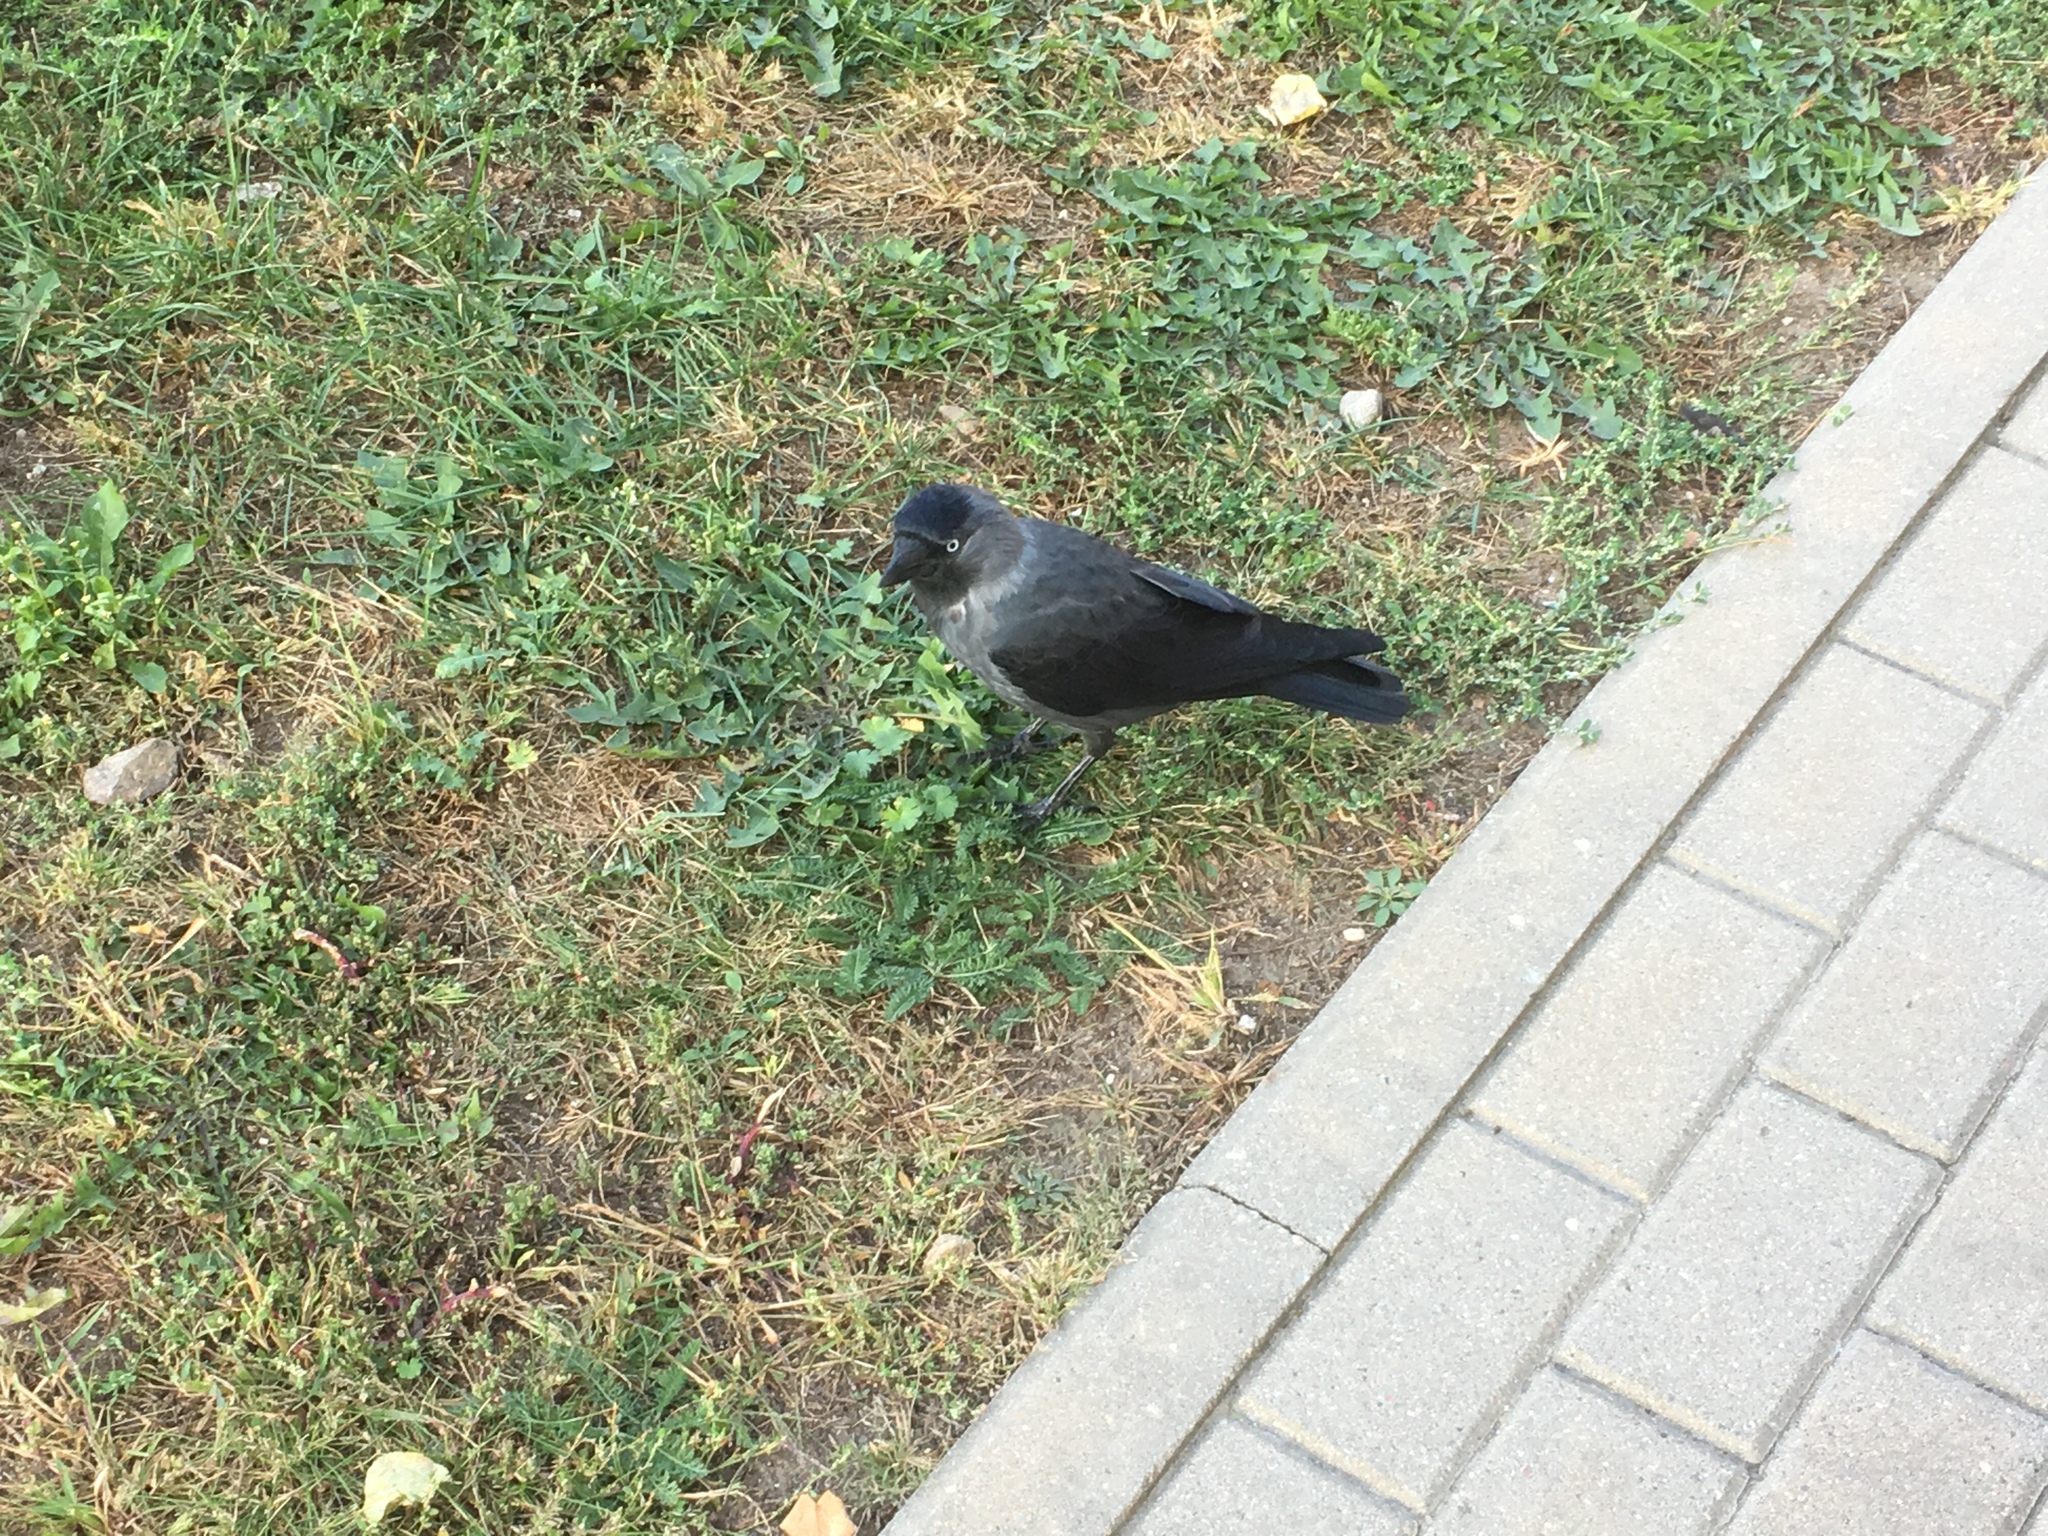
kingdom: Animalia
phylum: Chordata
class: Aves
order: Passeriformes
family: Corvidae
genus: Coloeus
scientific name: Coloeus monedula
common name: Western jackdaw
